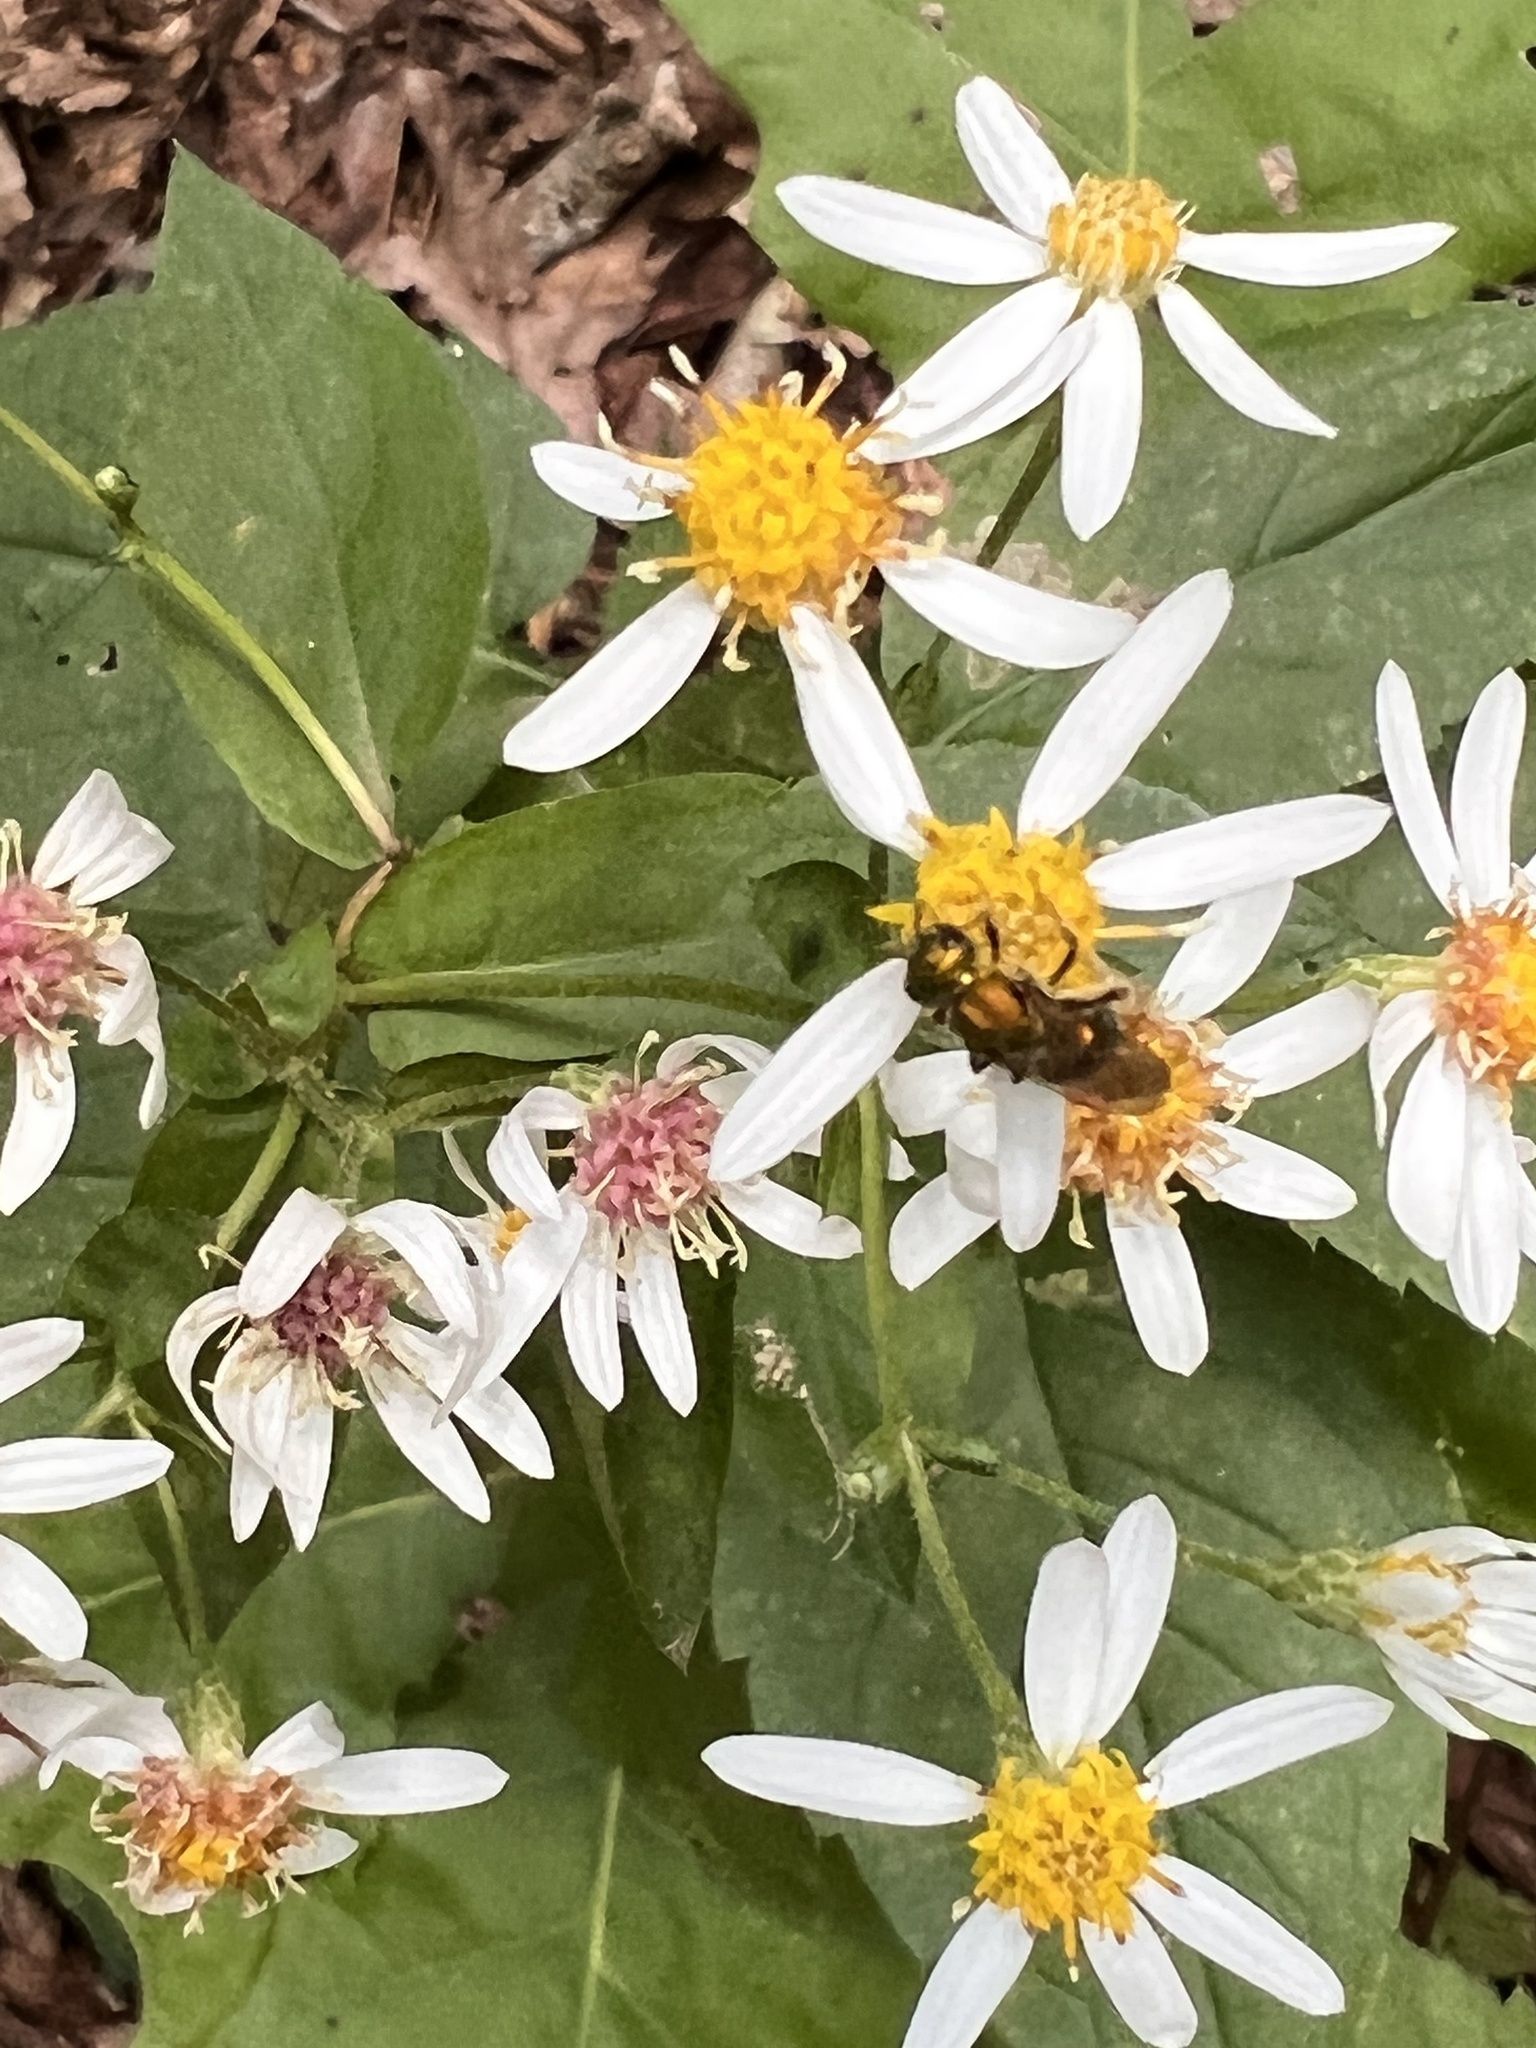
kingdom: Plantae
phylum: Tracheophyta
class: Magnoliopsida
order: Asterales
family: Asteraceae
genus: Eurybia
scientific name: Eurybia divaricata
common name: White wood aster
